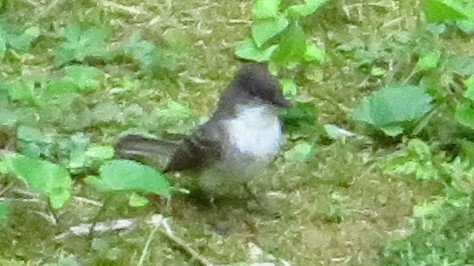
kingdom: Animalia
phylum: Chordata
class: Aves
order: Passeriformes
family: Tyrannidae
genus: Sayornis
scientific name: Sayornis phoebe
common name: Eastern phoebe
